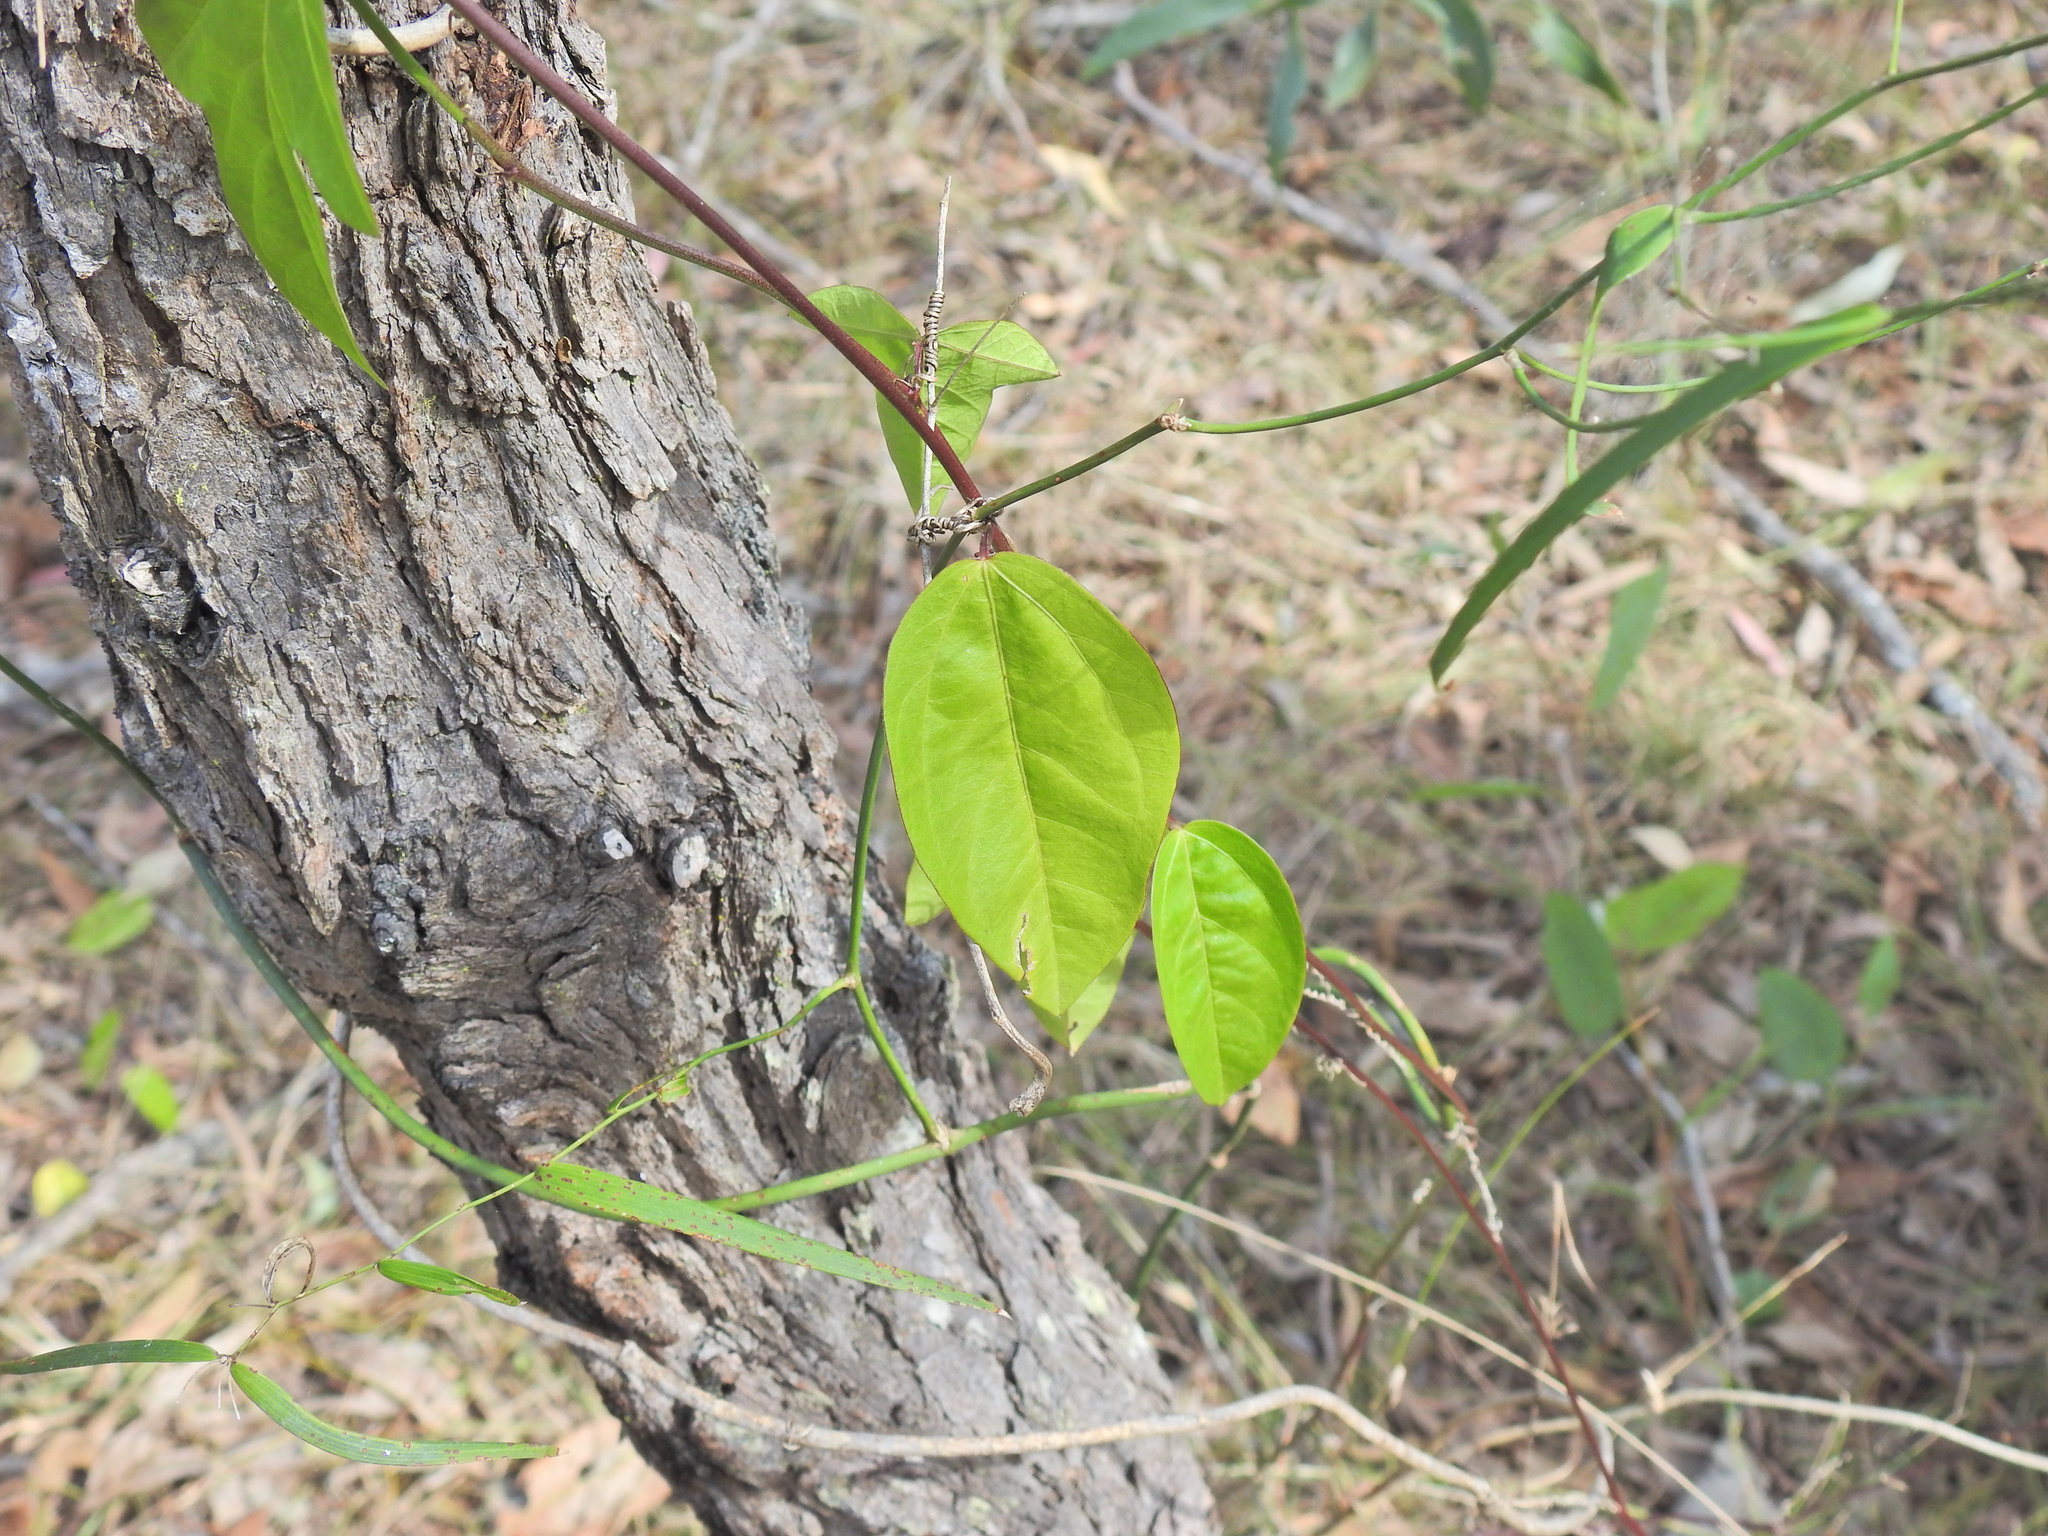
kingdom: Plantae
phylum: Tracheophyta
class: Magnoliopsida
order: Malpighiales
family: Passifloraceae
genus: Passiflora
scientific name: Passiflora pallida
